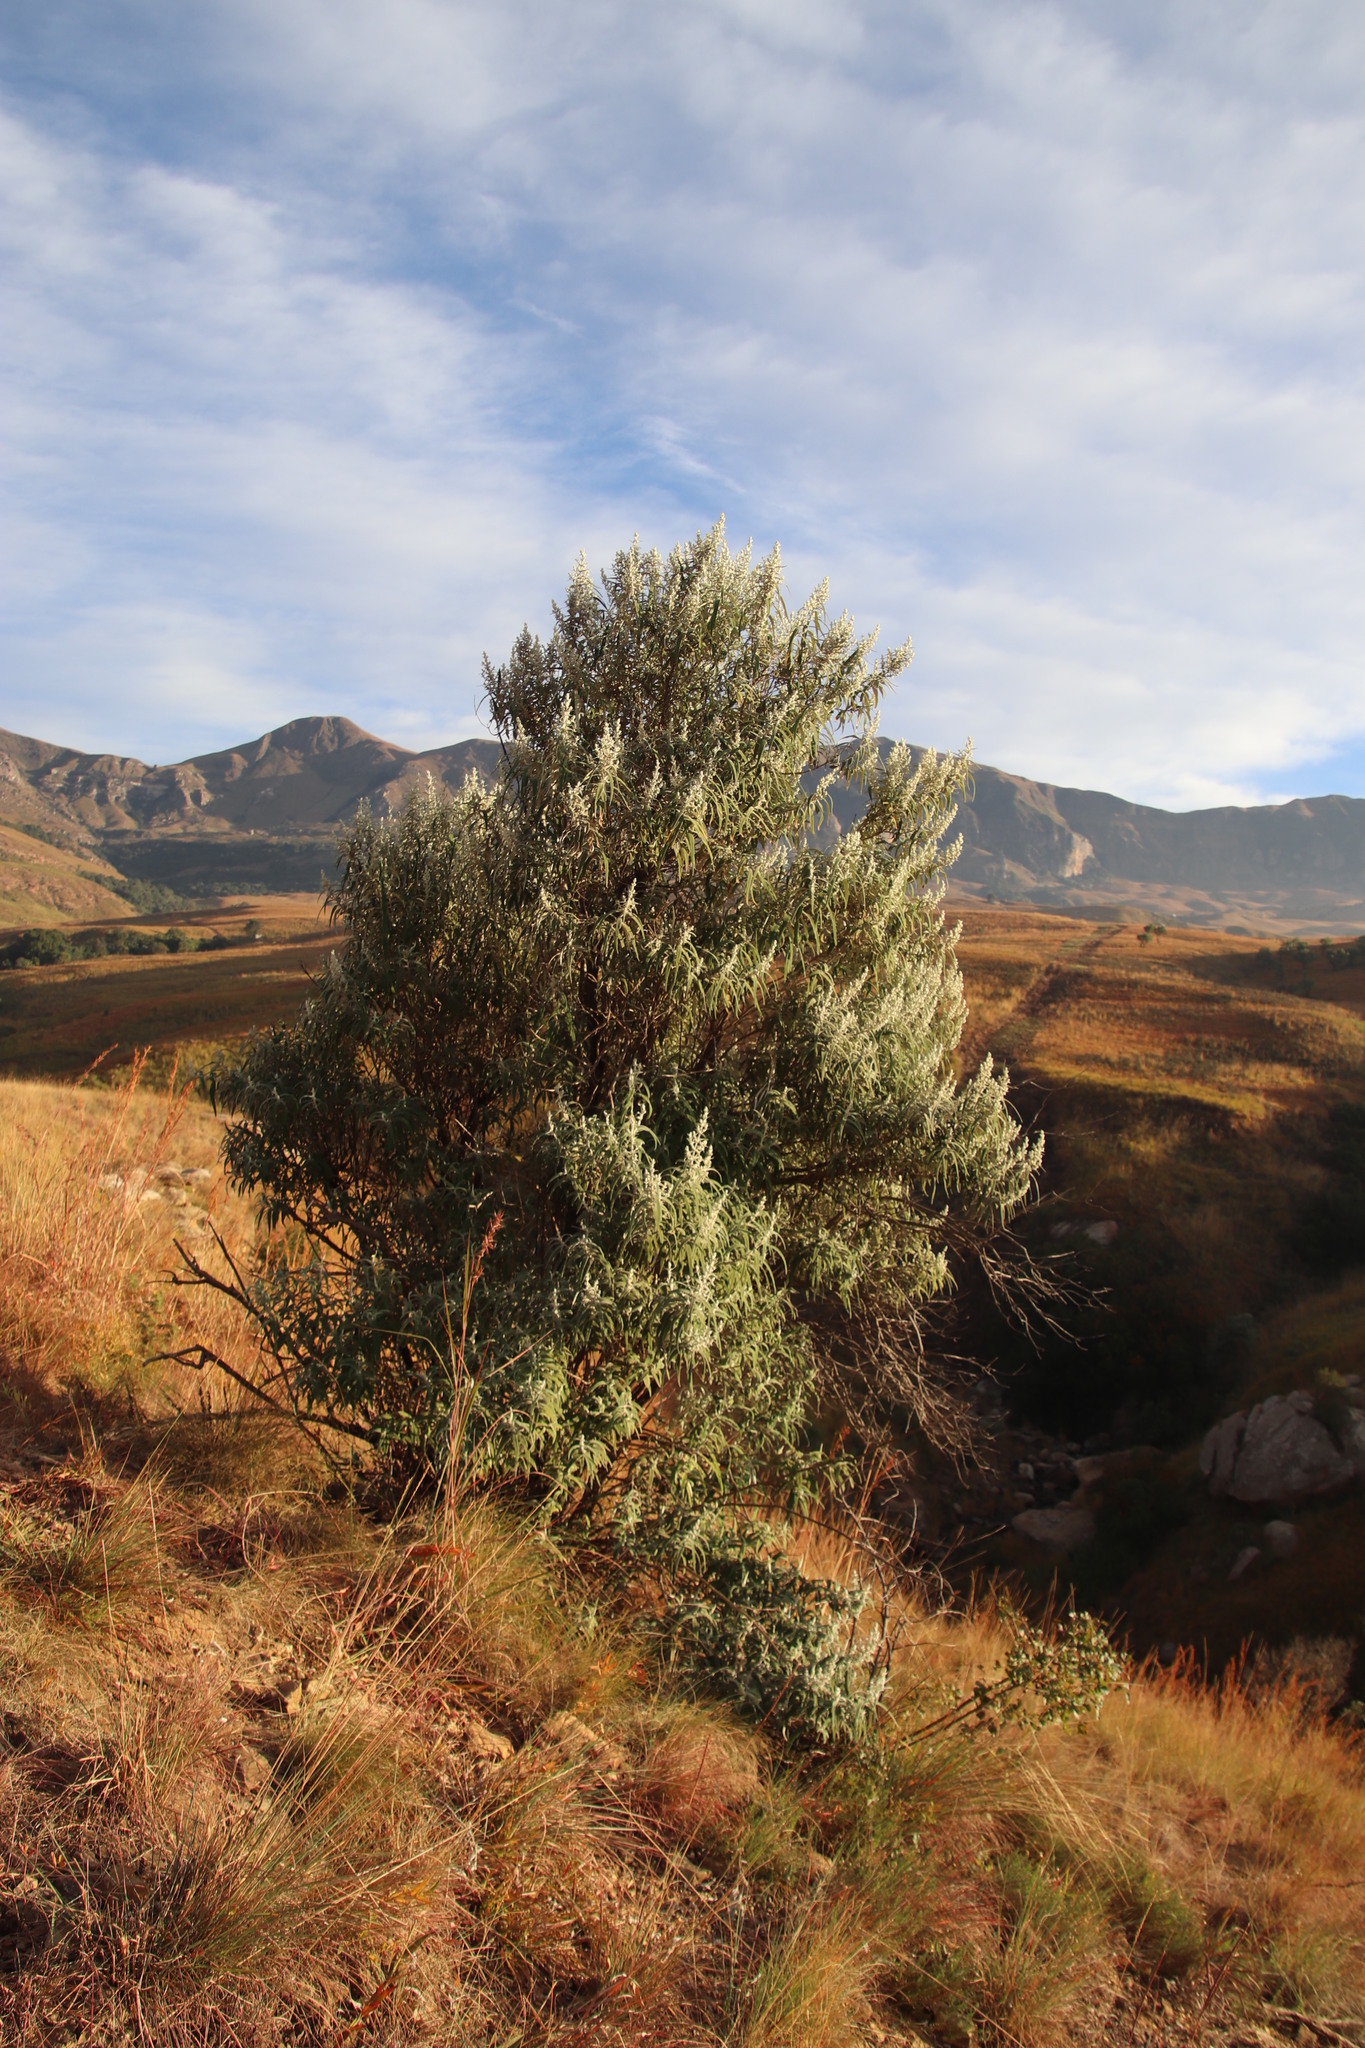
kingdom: Plantae
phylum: Tracheophyta
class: Magnoliopsida
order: Lamiales
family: Scrophulariaceae
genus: Buddleja
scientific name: Buddleja salviifolia
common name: Sagewood
